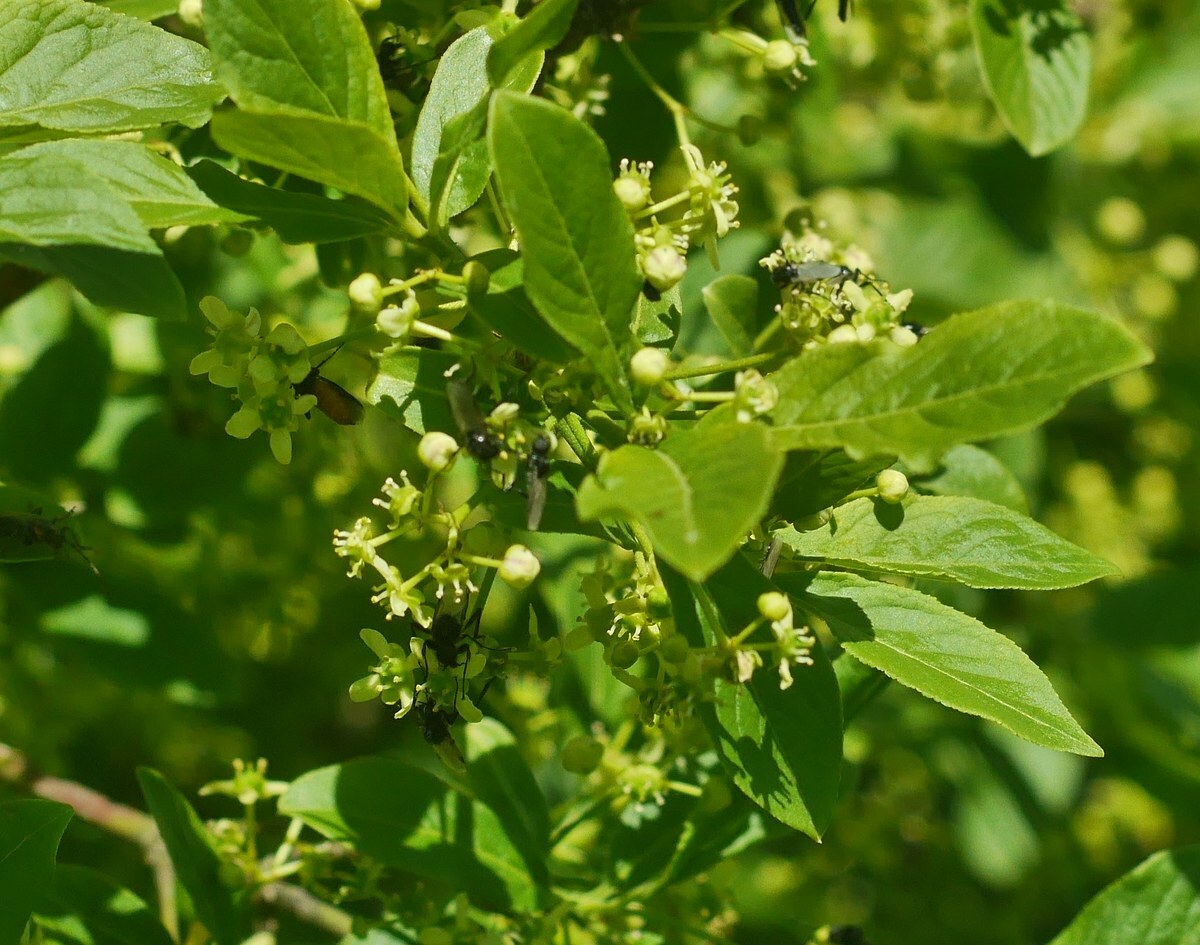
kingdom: Plantae
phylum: Tracheophyta
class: Magnoliopsida
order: Celastrales
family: Celastraceae
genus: Euonymus
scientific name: Euonymus europaeus
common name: Spindle
